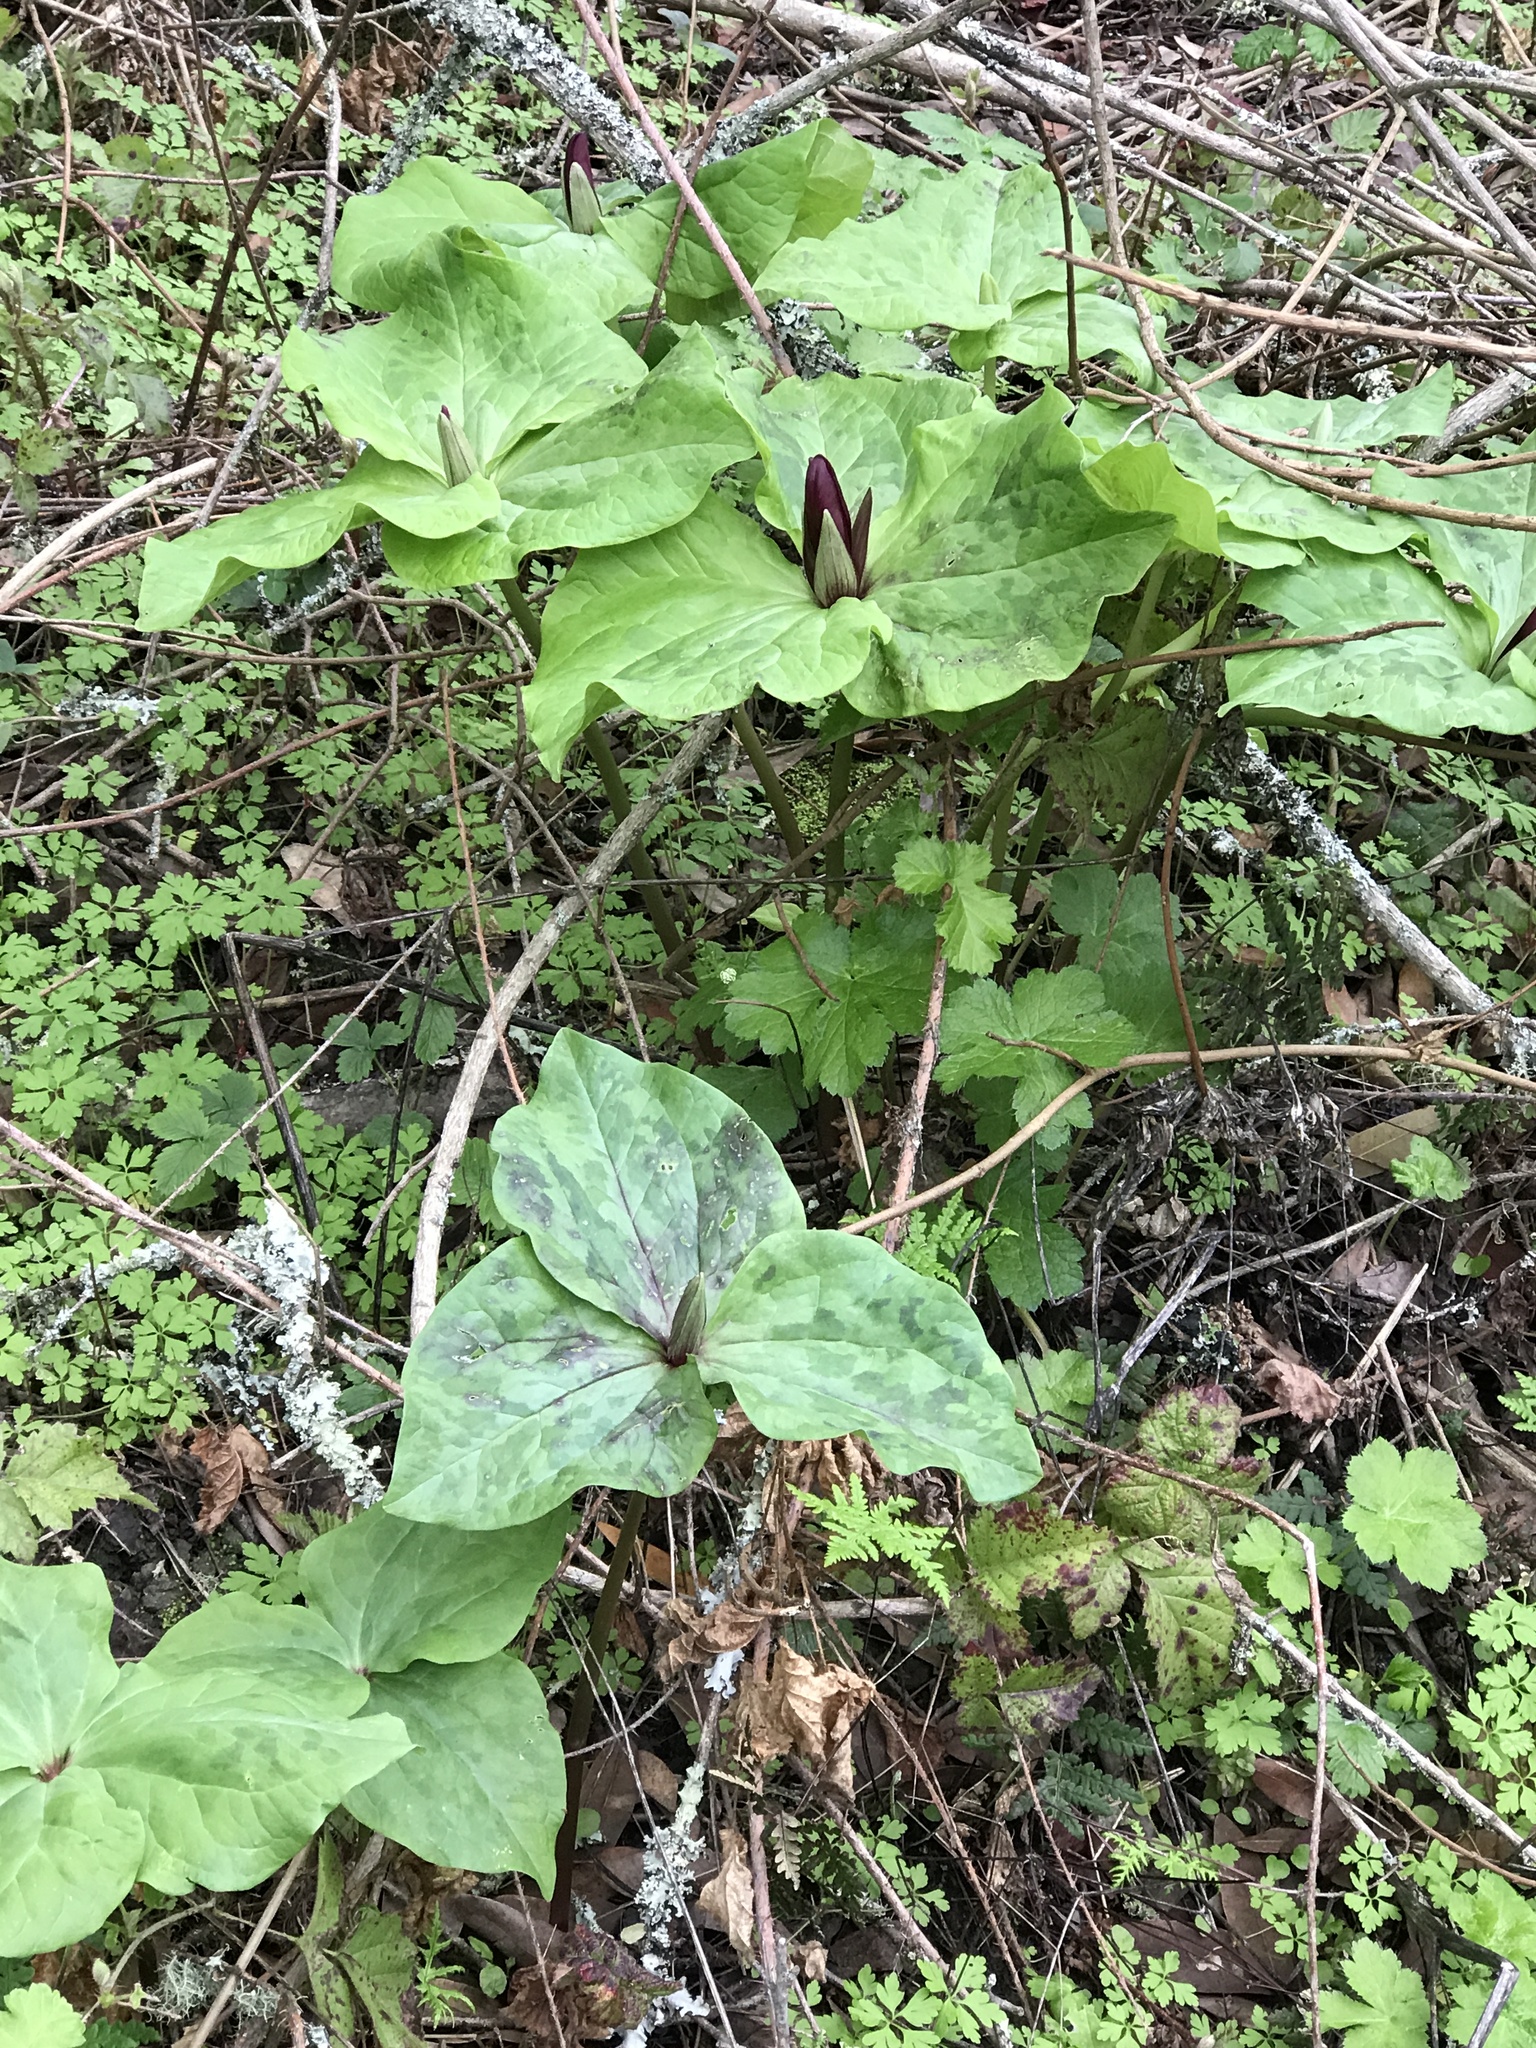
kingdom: Plantae
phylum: Tracheophyta
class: Liliopsida
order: Liliales
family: Melanthiaceae
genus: Trillium
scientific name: Trillium chloropetalum
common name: Giant trillium
